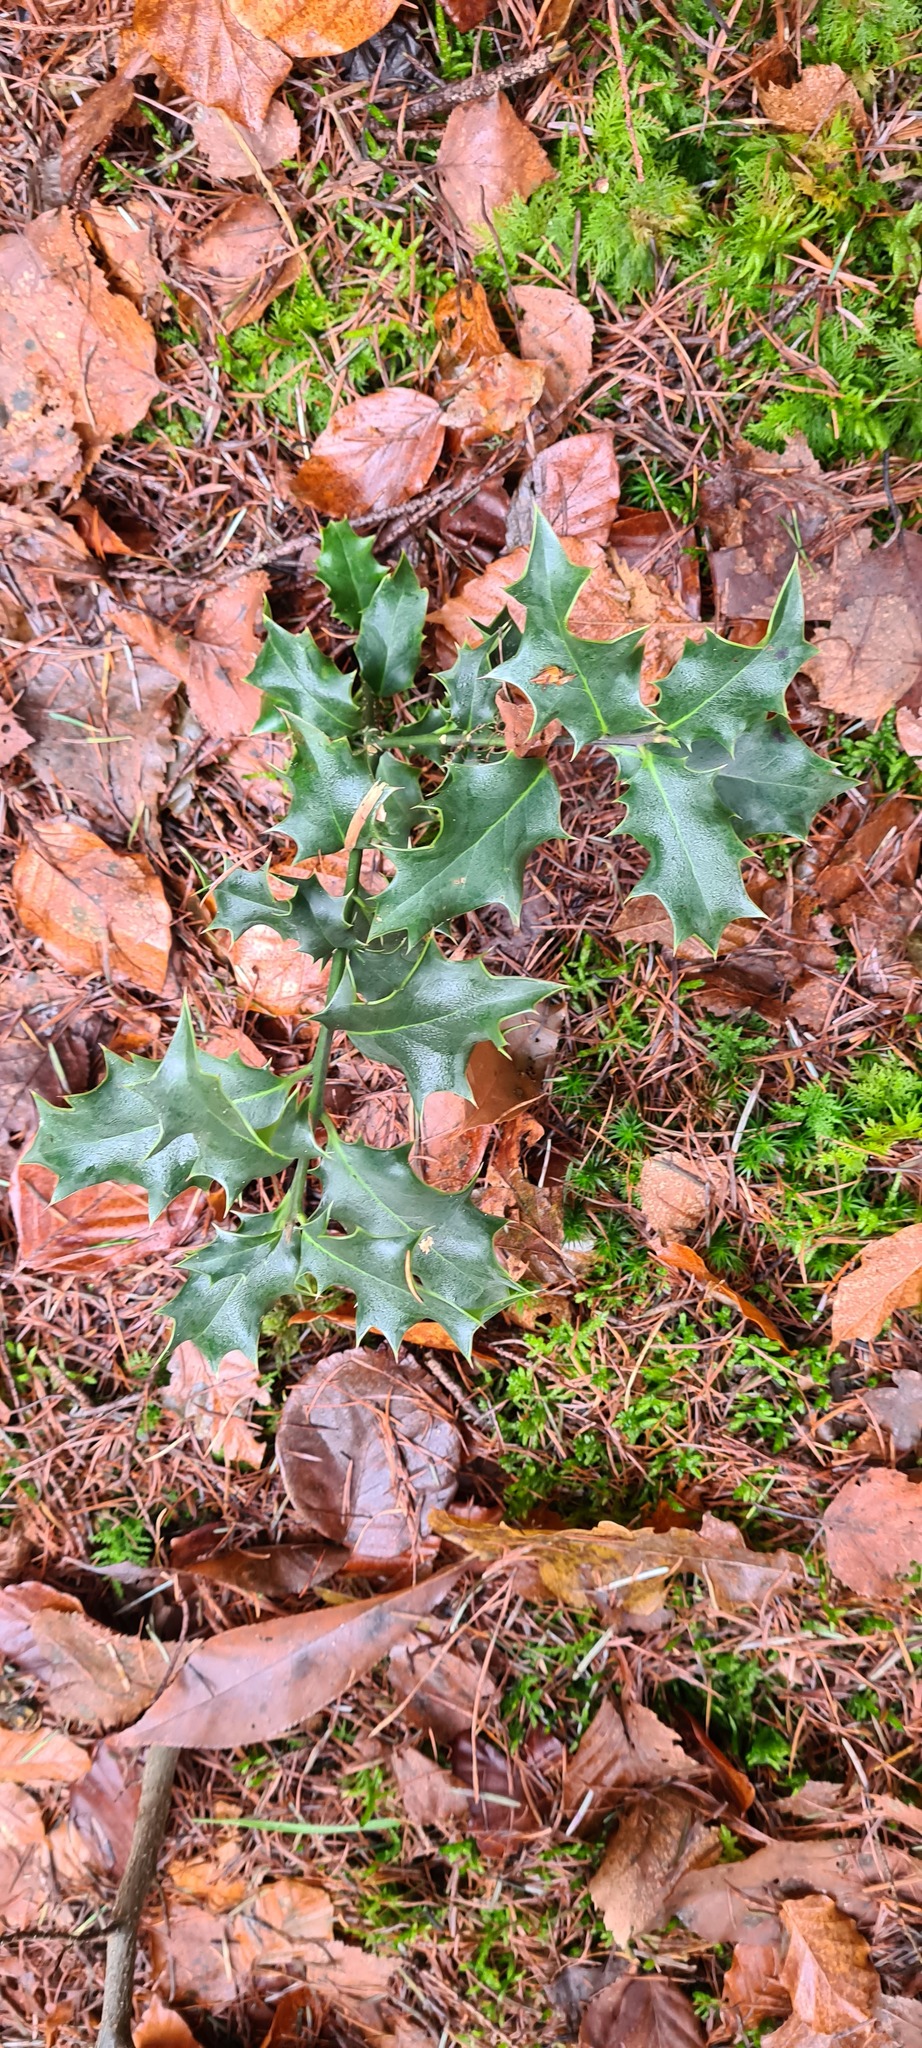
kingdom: Plantae
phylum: Tracheophyta
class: Magnoliopsida
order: Aquifoliales
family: Aquifoliaceae
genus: Ilex
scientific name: Ilex aquifolium
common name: English holly
